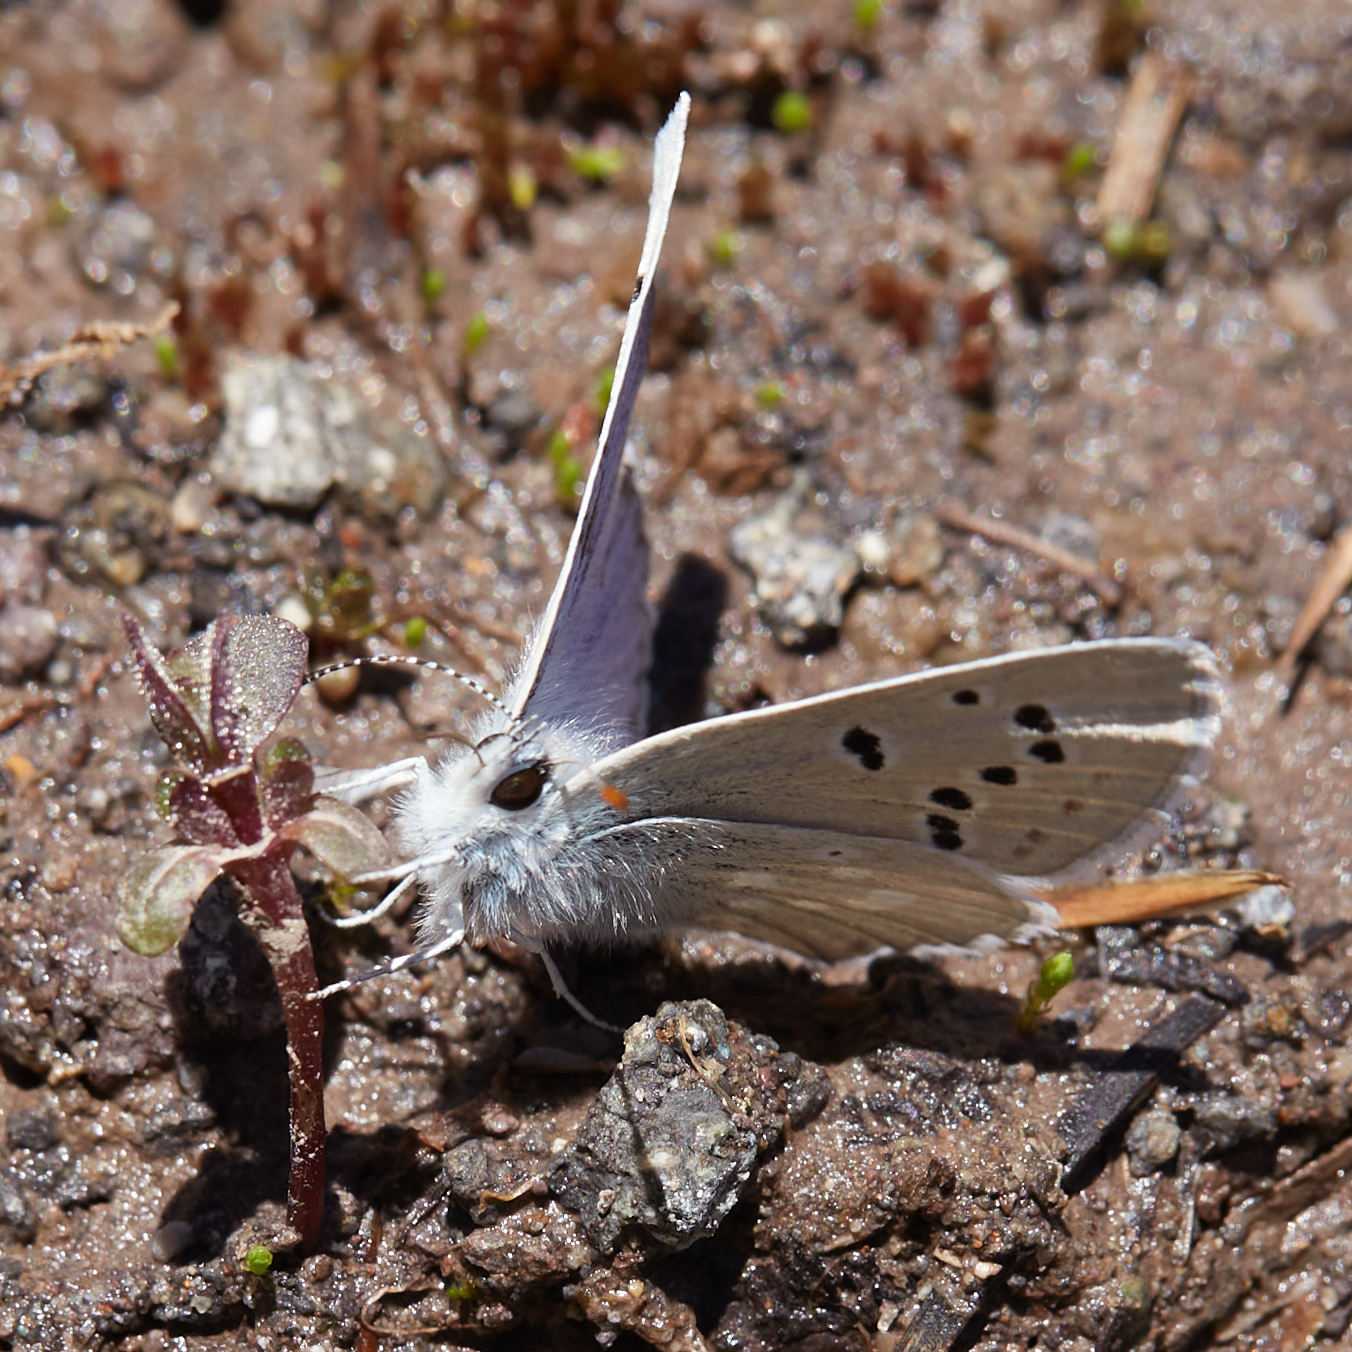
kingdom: Animalia
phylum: Arthropoda
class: Insecta
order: Lepidoptera
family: Lycaenidae
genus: Icaricia
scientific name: Icaricia icarioides
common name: Boisduval's blue
